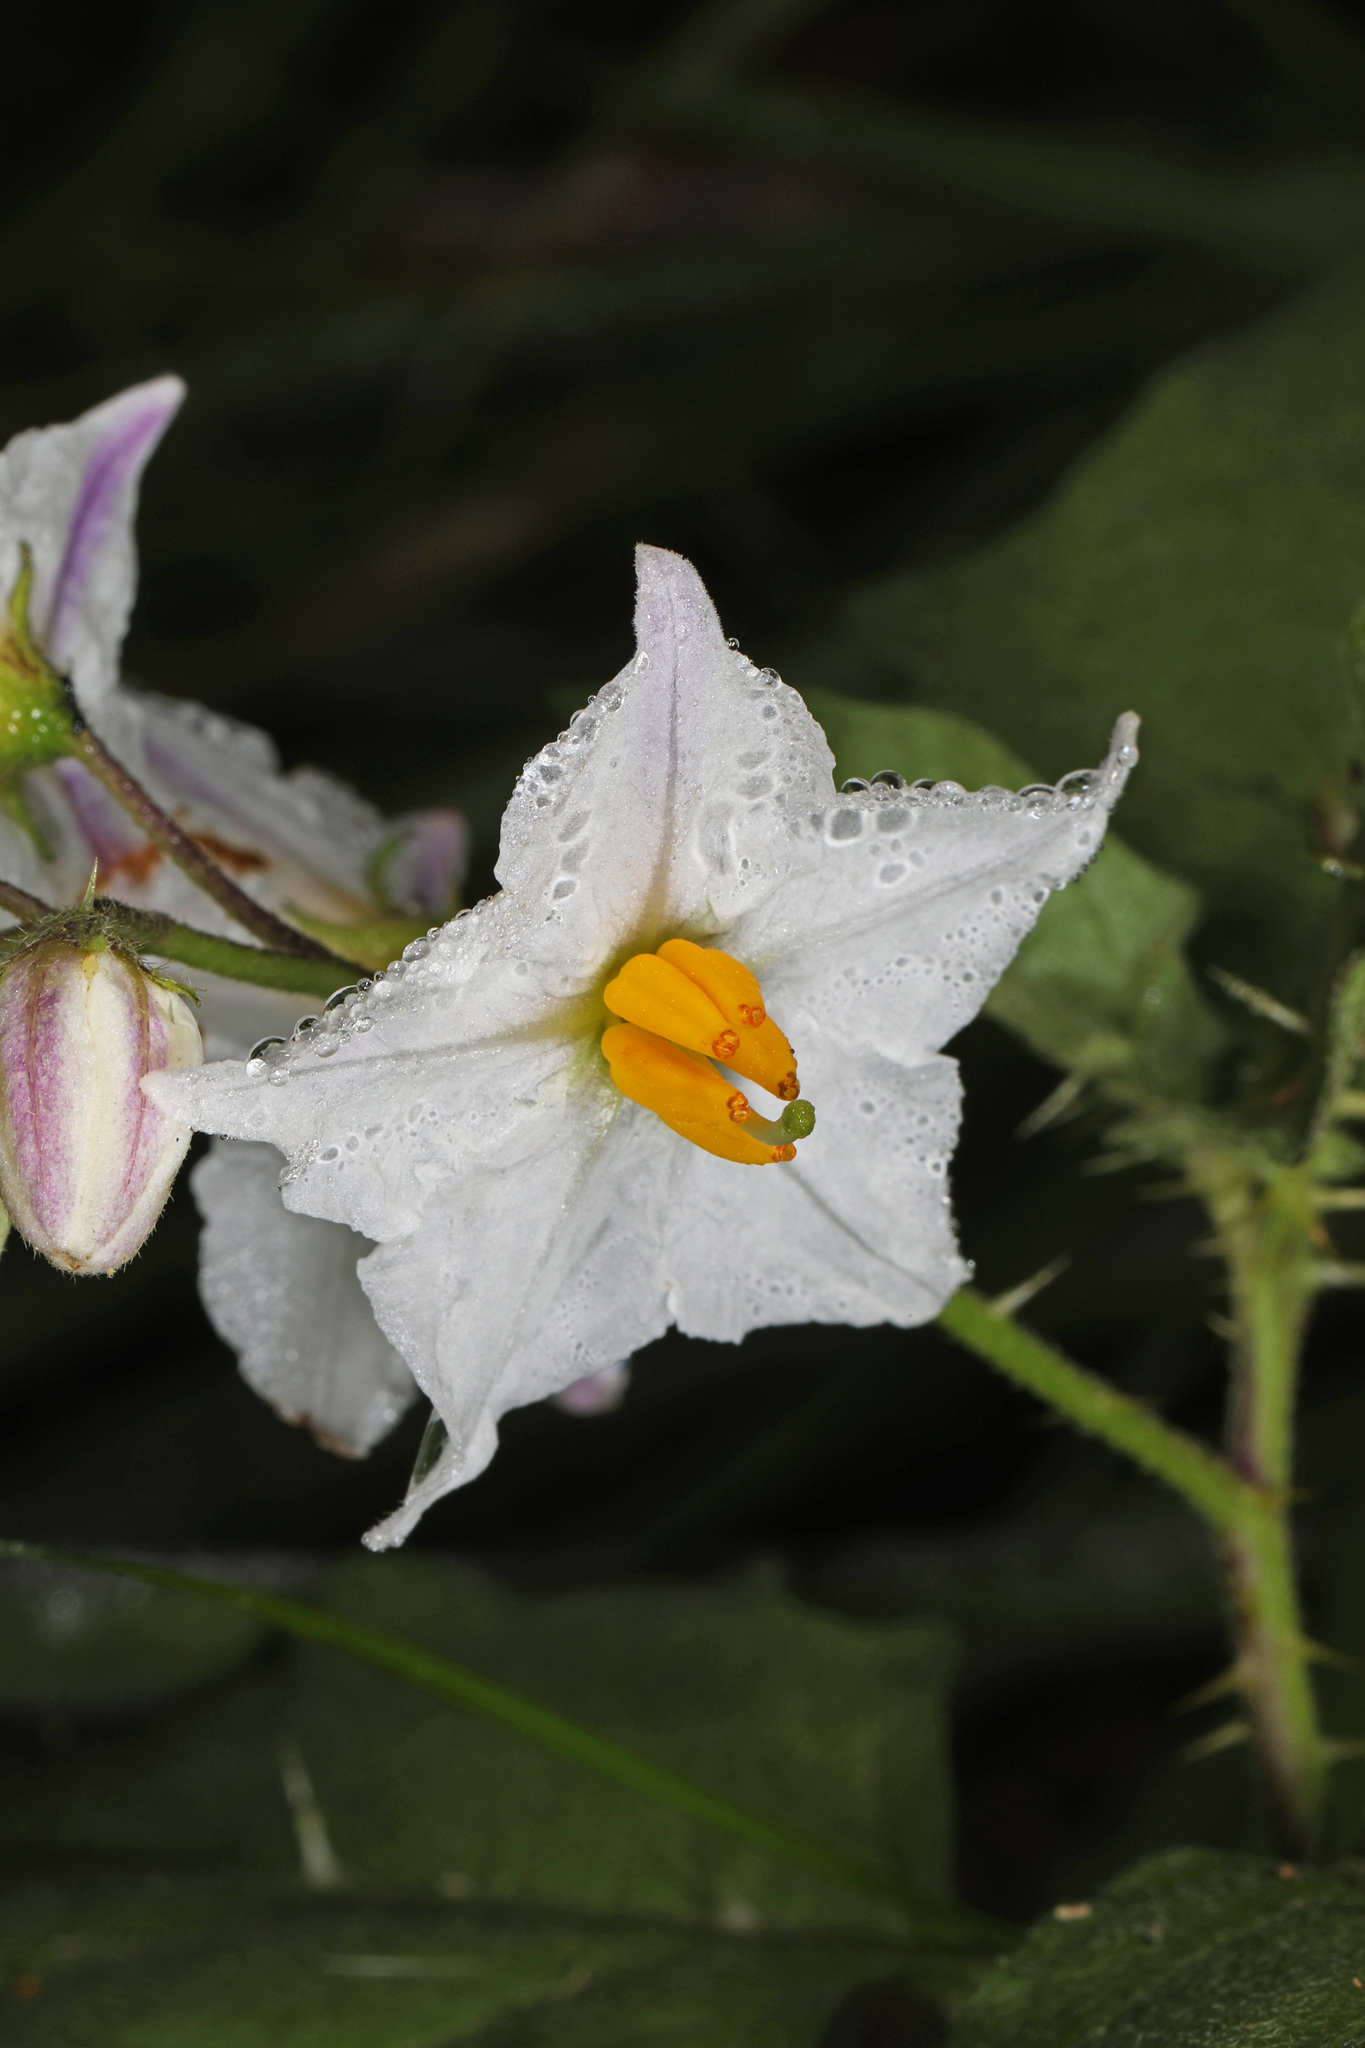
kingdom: Plantae
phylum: Tracheophyta
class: Magnoliopsida
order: Solanales
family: Solanaceae
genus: Solanum
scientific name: Solanum carolinense
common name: Horse-nettle
